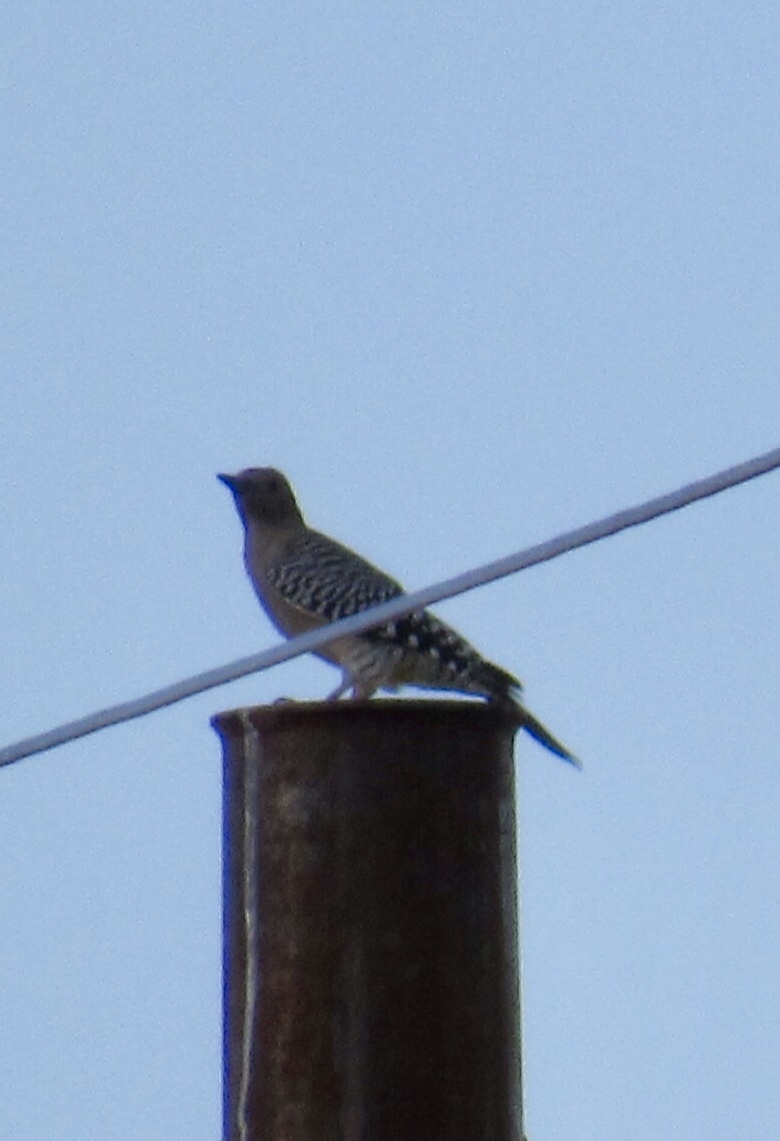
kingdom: Animalia
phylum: Chordata
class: Aves
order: Piciformes
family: Picidae
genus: Melanerpes
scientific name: Melanerpes uropygialis
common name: Gila woodpecker
